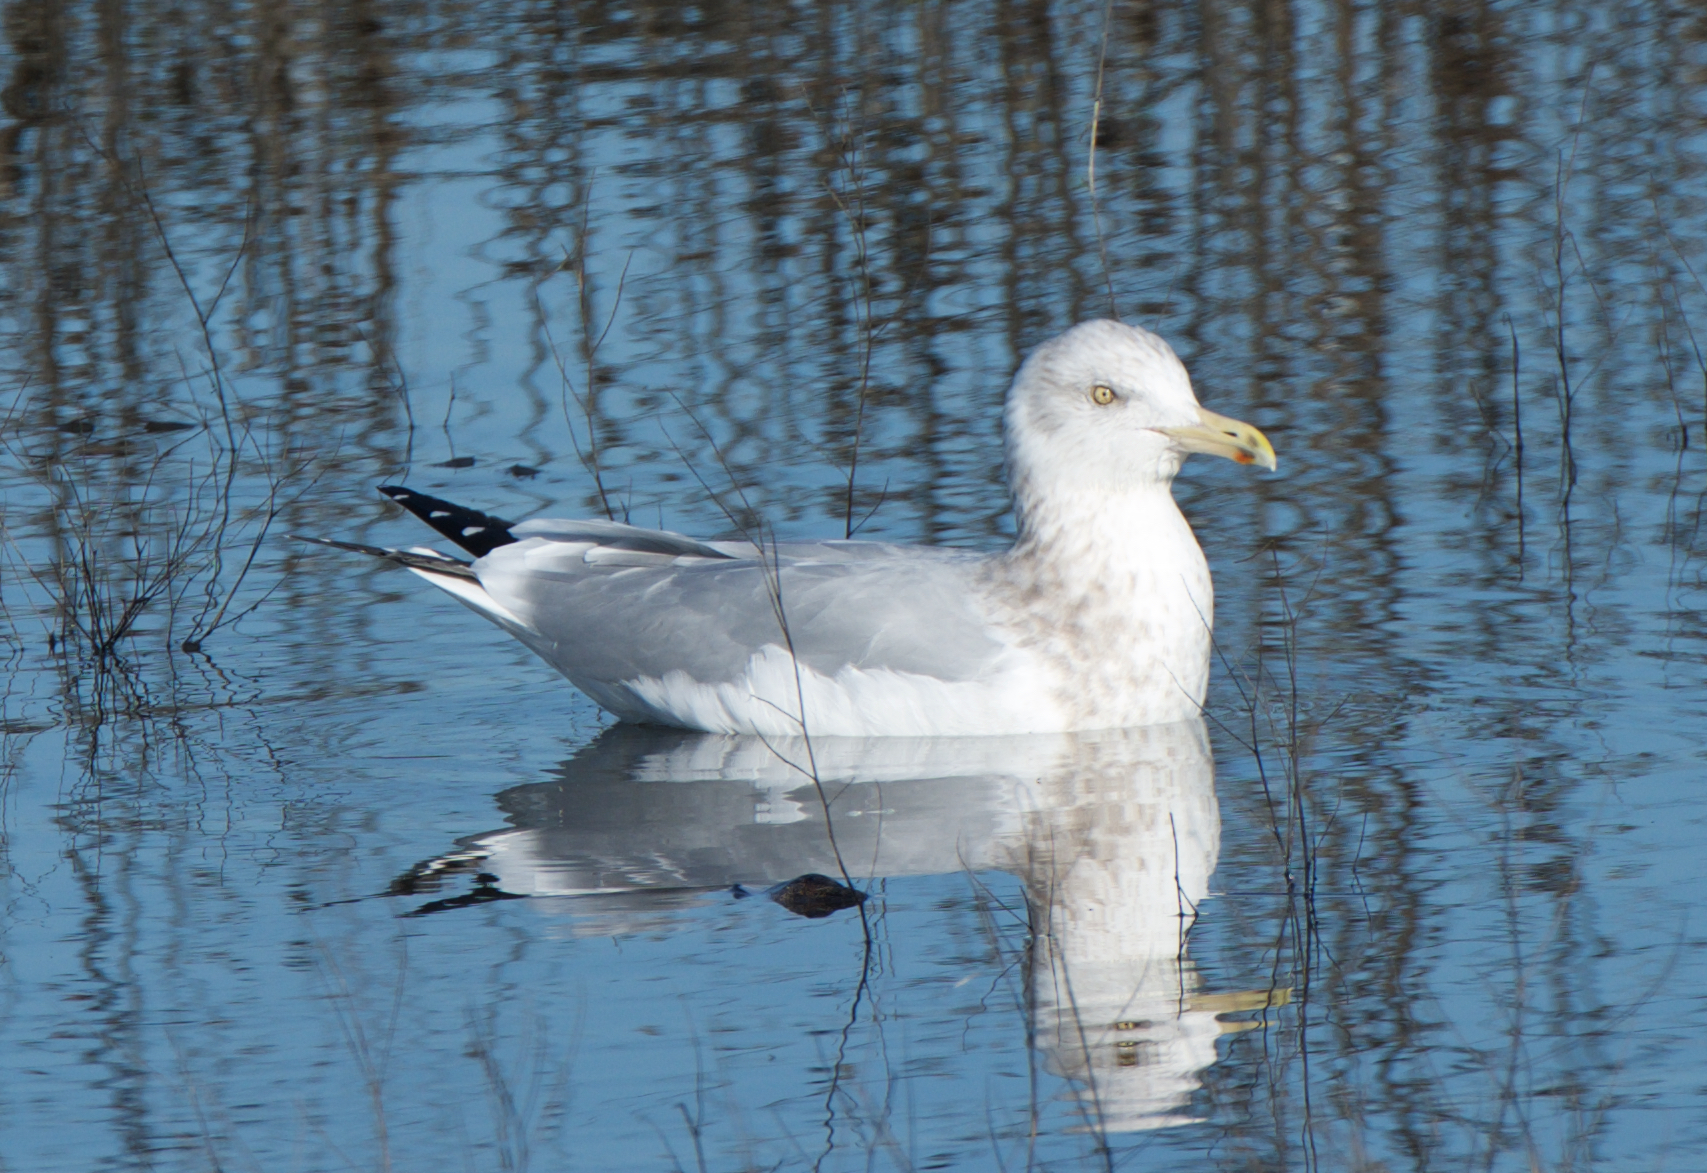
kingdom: Animalia
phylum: Chordata
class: Aves
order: Charadriiformes
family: Laridae
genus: Larus
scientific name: Larus argentatus
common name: Herring gull
